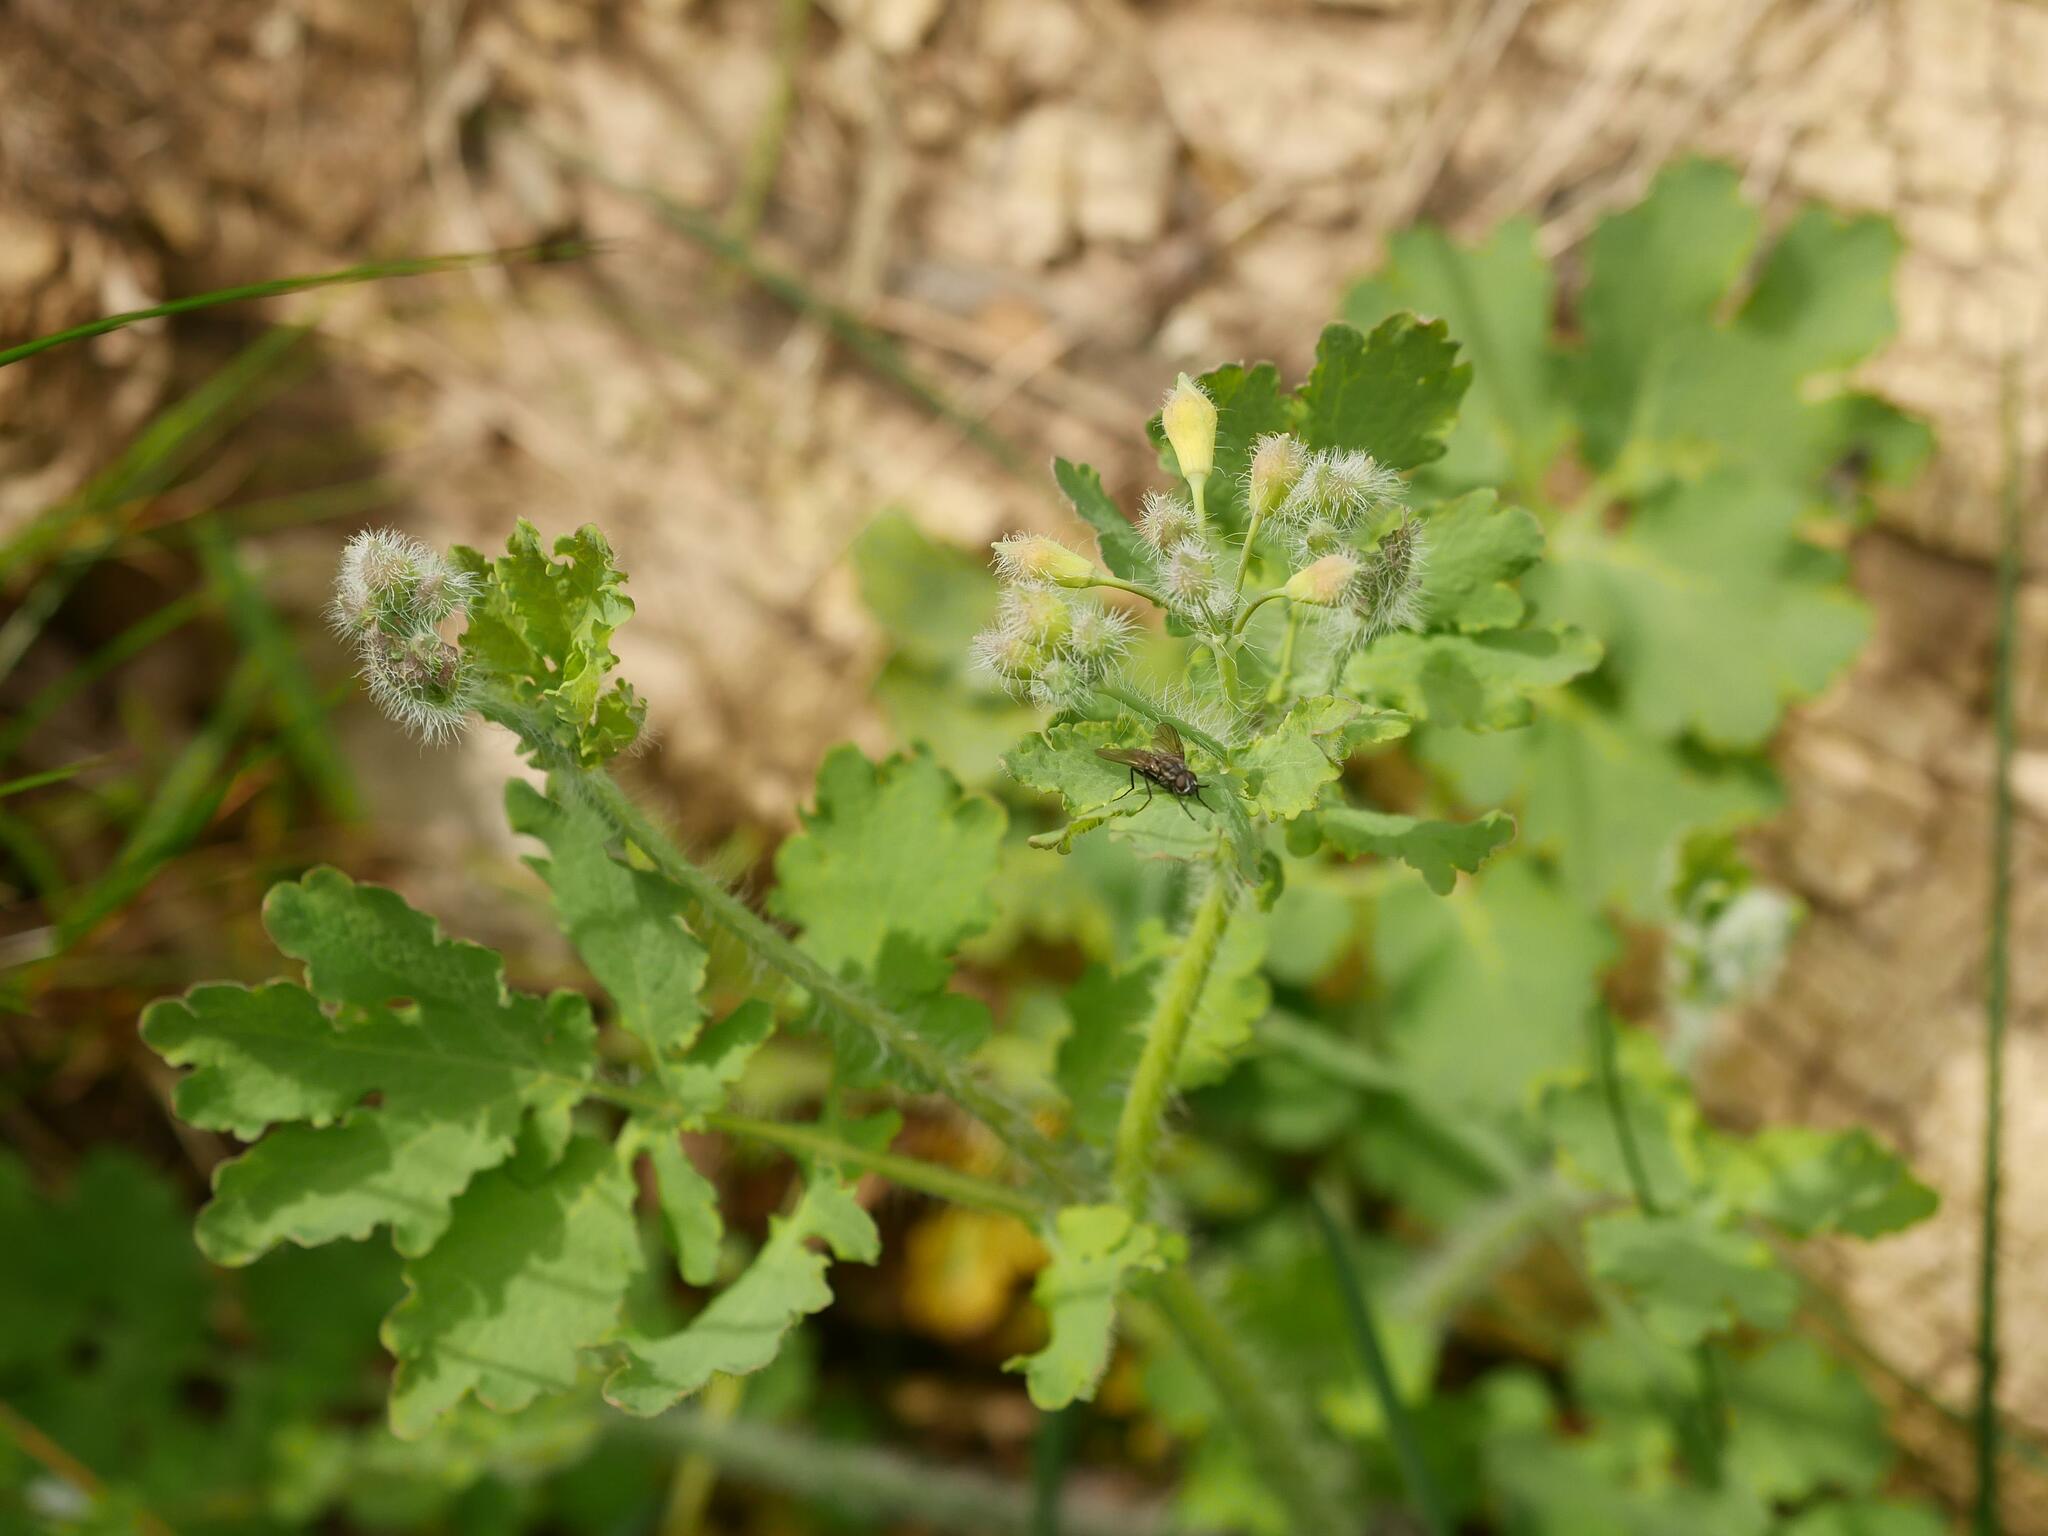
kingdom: Plantae
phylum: Tracheophyta
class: Magnoliopsida
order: Ranunculales
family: Papaveraceae
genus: Chelidonium
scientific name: Chelidonium majus
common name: Greater celandine
